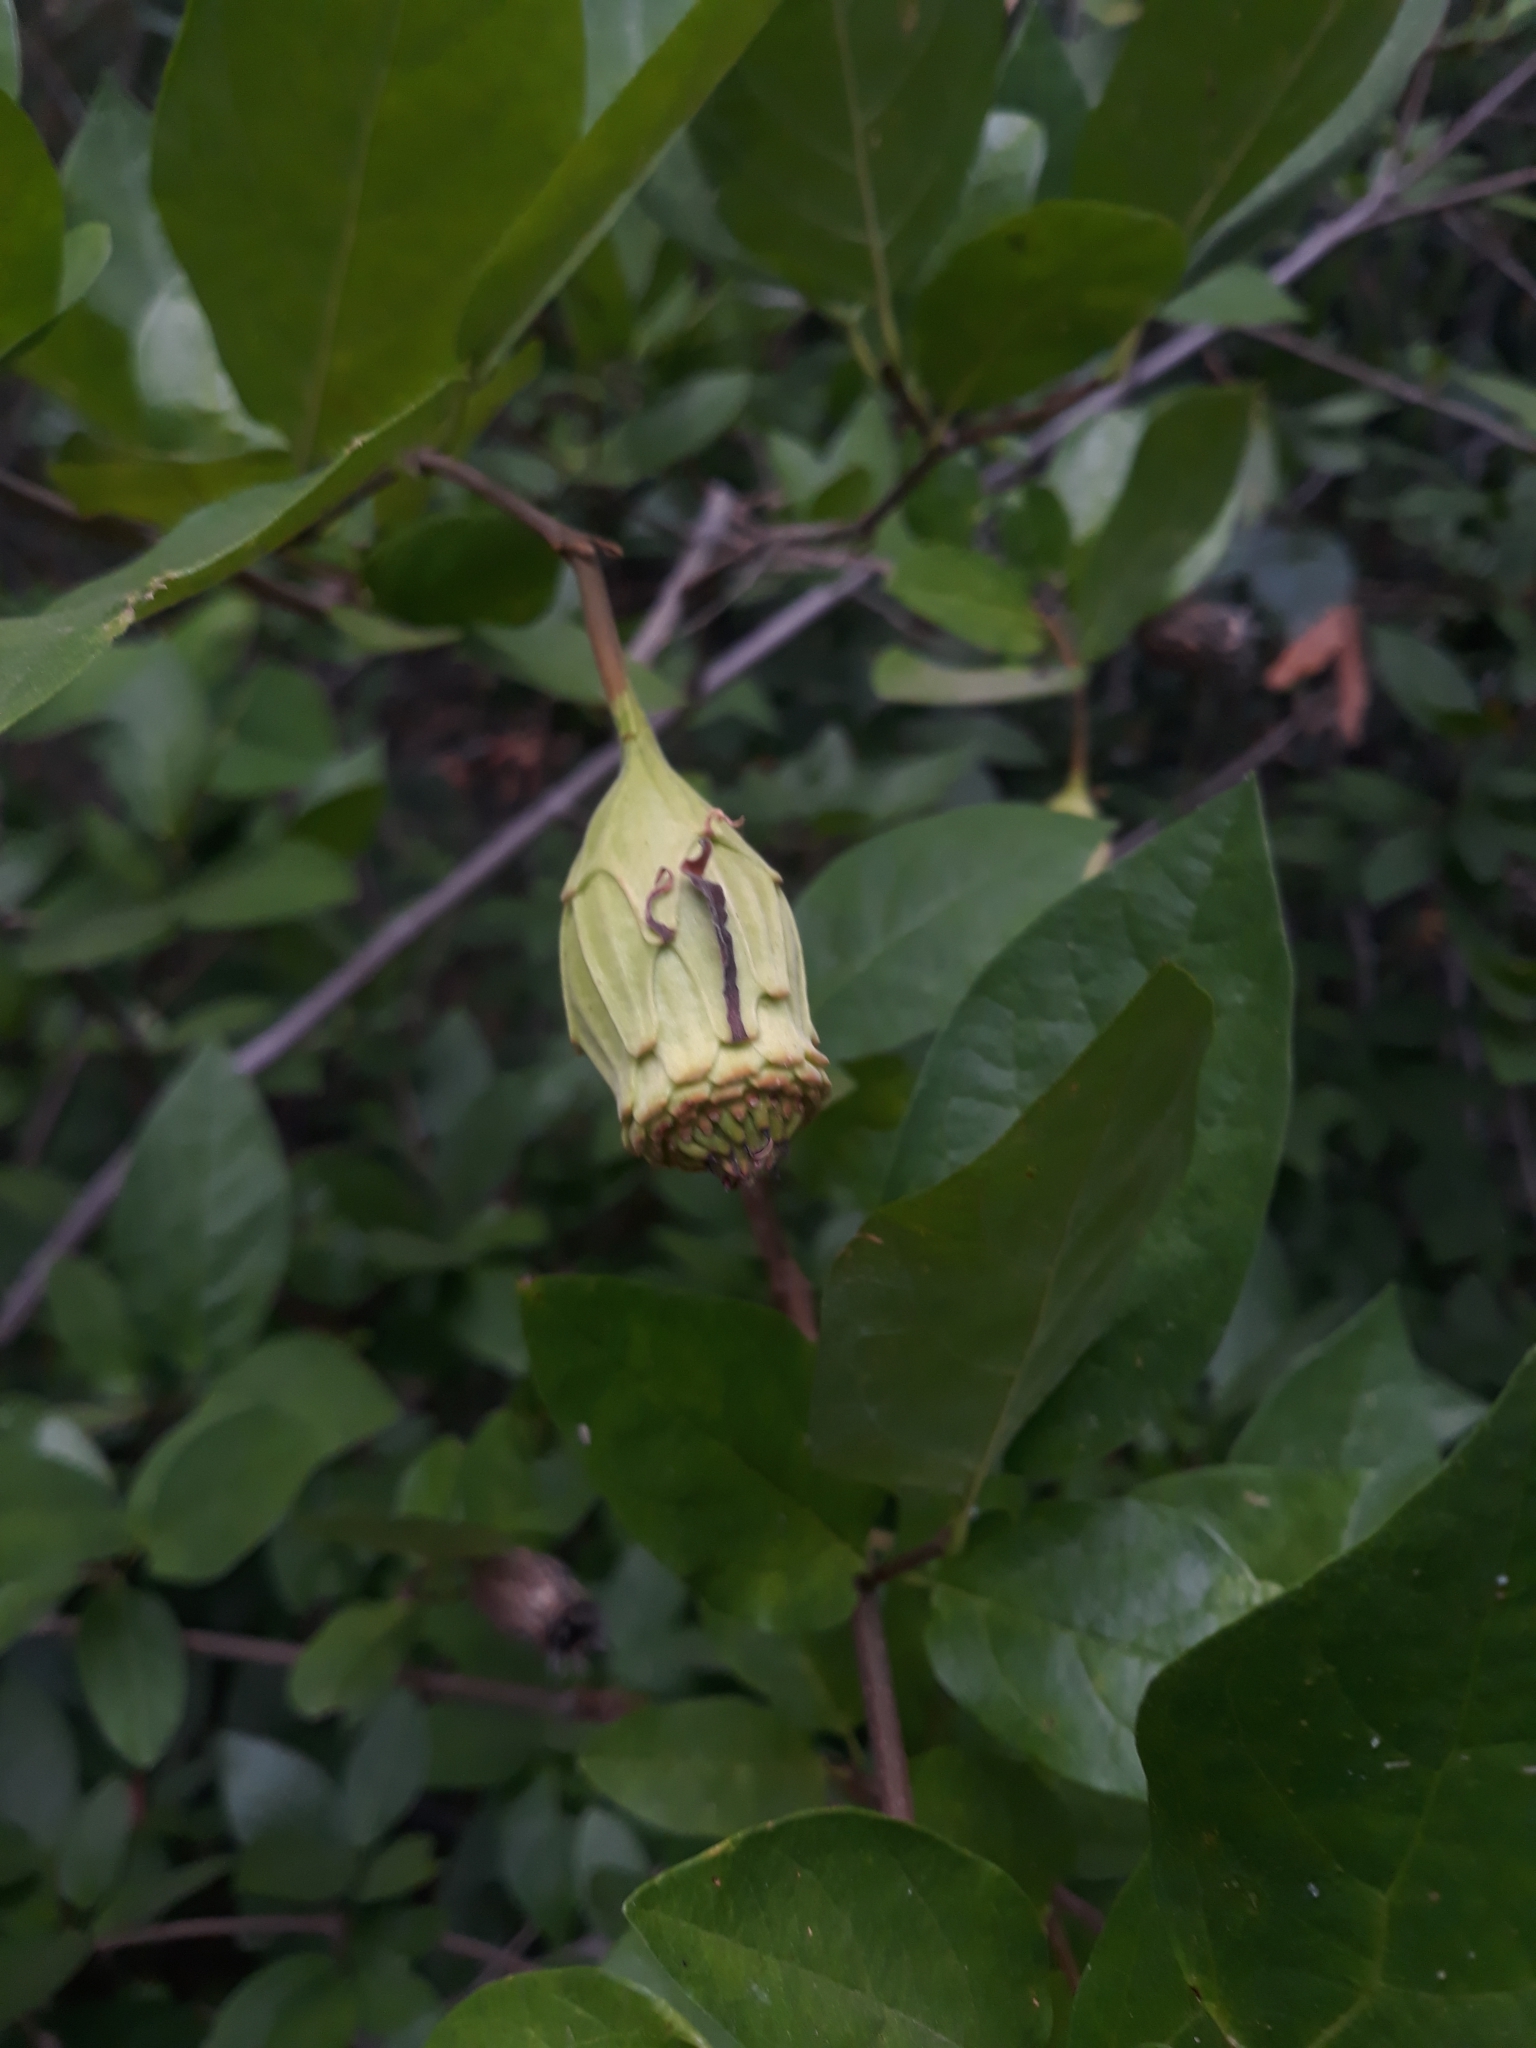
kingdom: Plantae
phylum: Tracheophyta
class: Magnoliopsida
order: Laurales
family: Calycanthaceae
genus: Calycanthus
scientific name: Calycanthus occidentalis
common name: California spicebush
